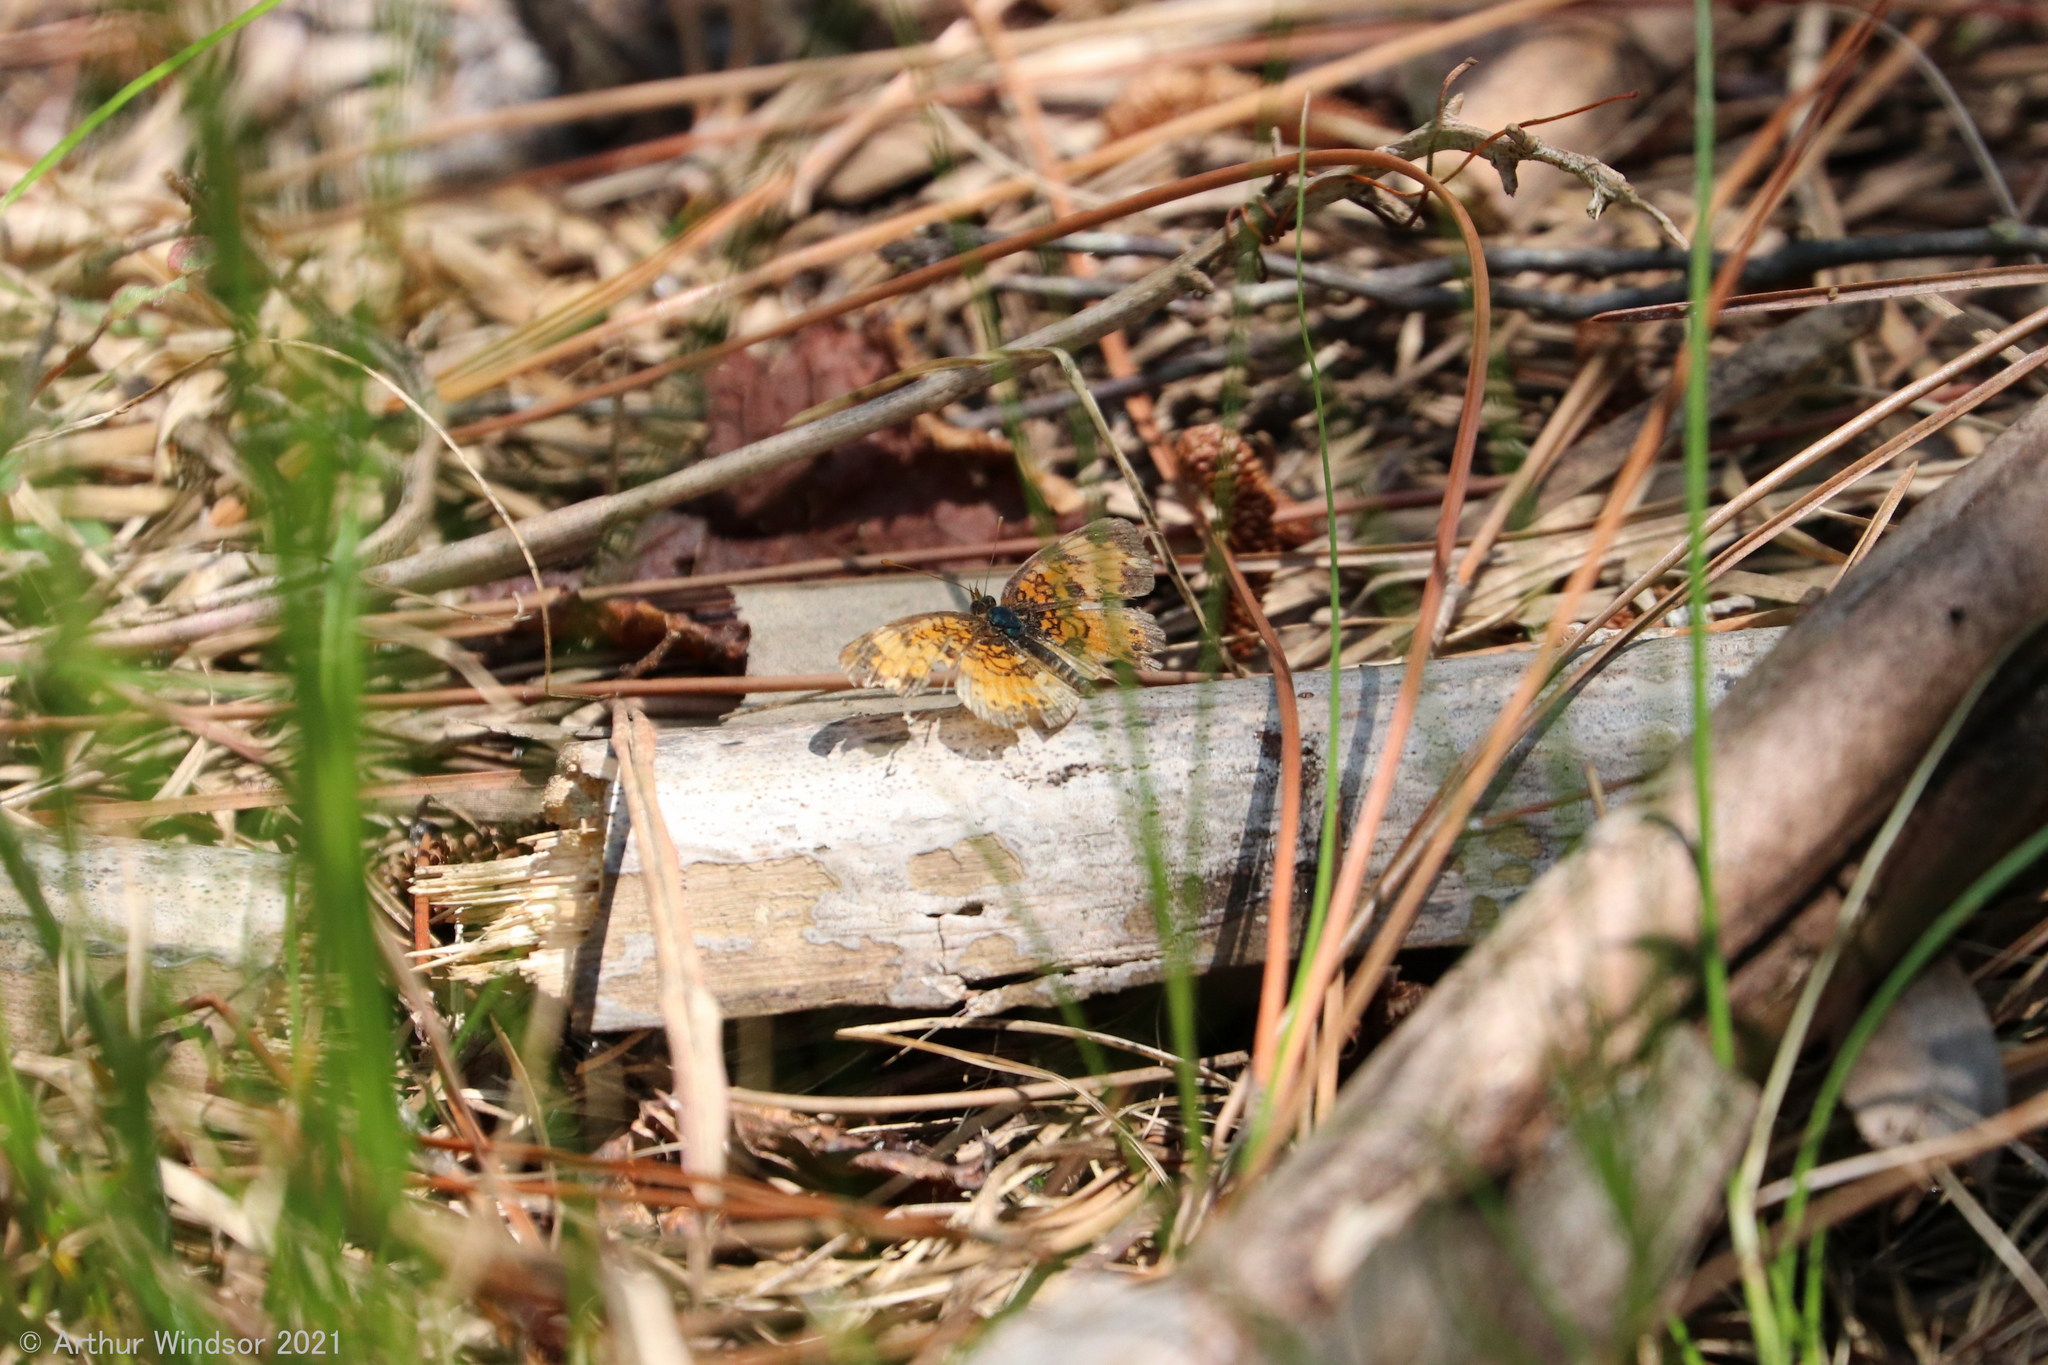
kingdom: Animalia
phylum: Arthropoda
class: Insecta
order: Lepidoptera
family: Nymphalidae
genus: Phyciodes
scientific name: Phyciodes tharos
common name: Pearl crescent
